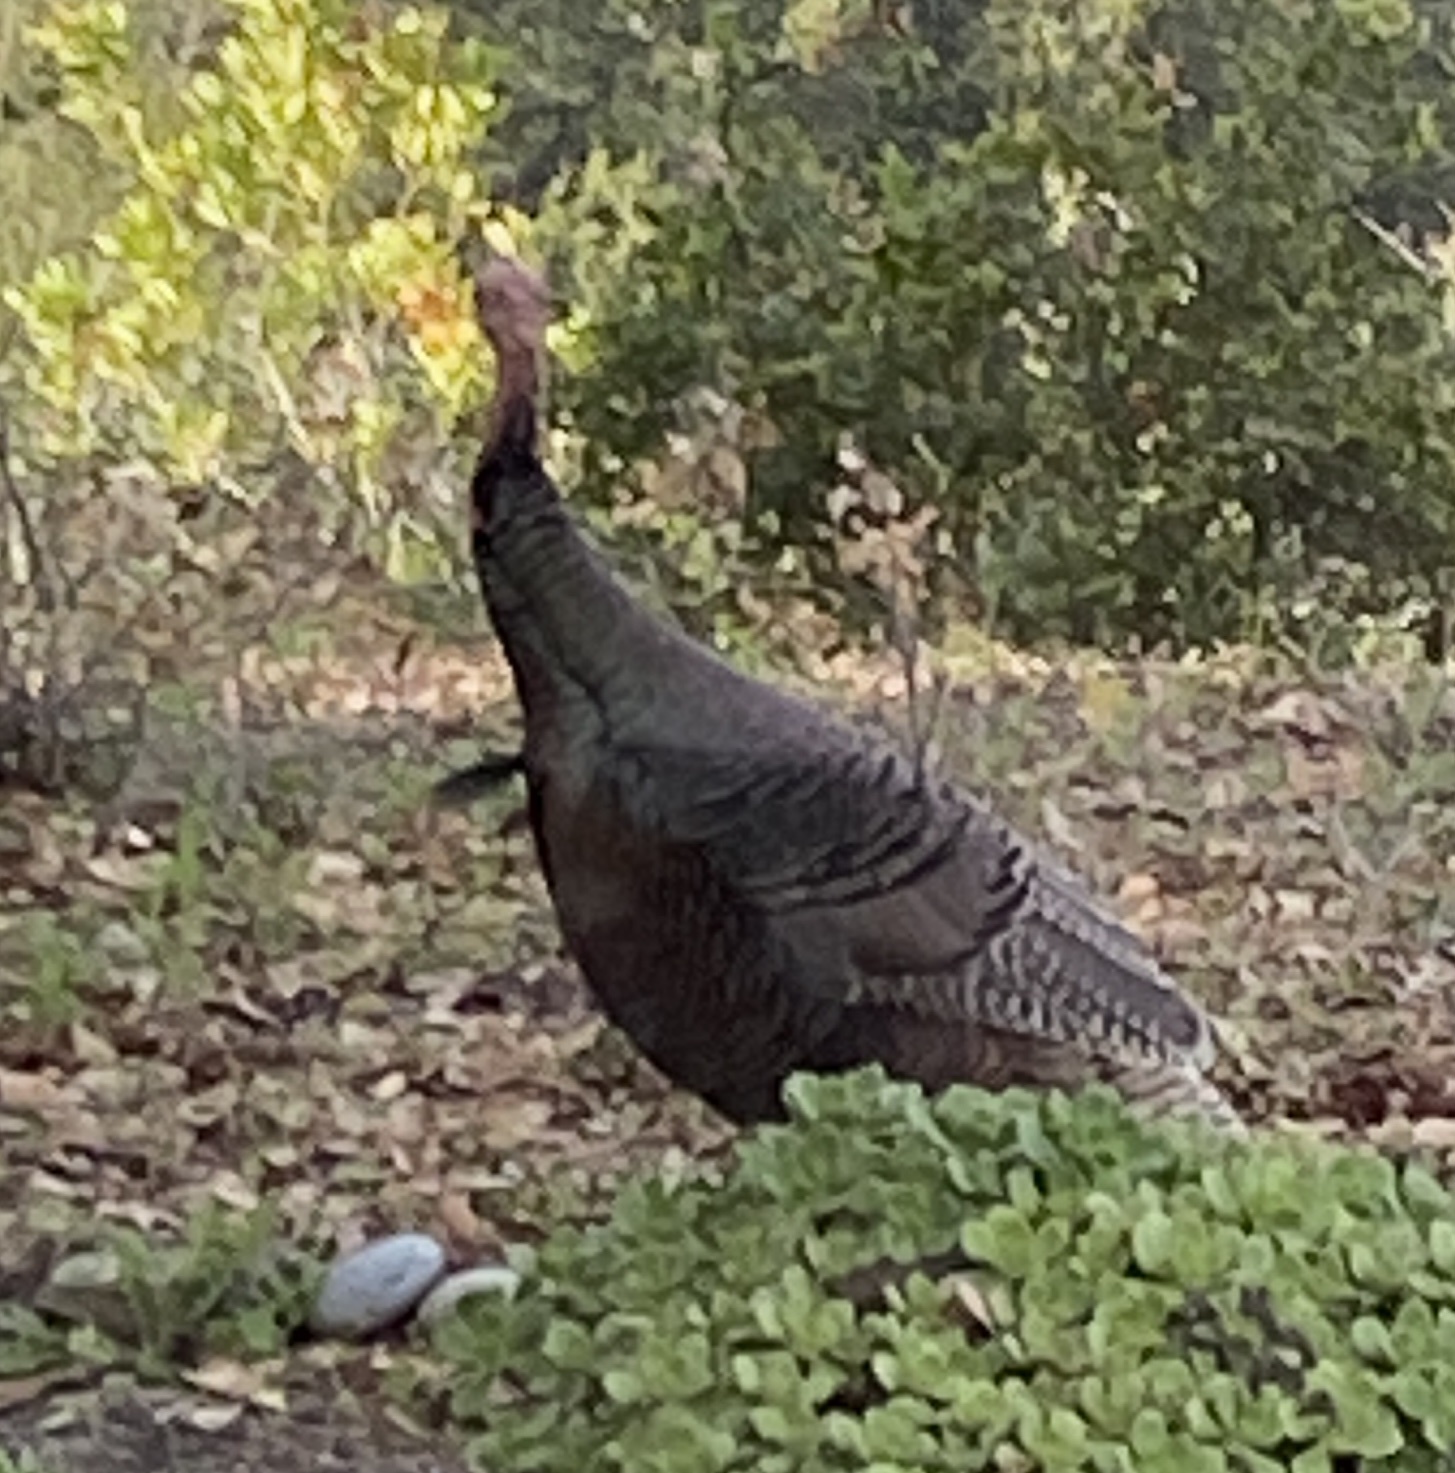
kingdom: Animalia
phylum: Chordata
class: Aves
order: Galliformes
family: Phasianidae
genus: Meleagris
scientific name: Meleagris gallopavo
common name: Wild turkey
